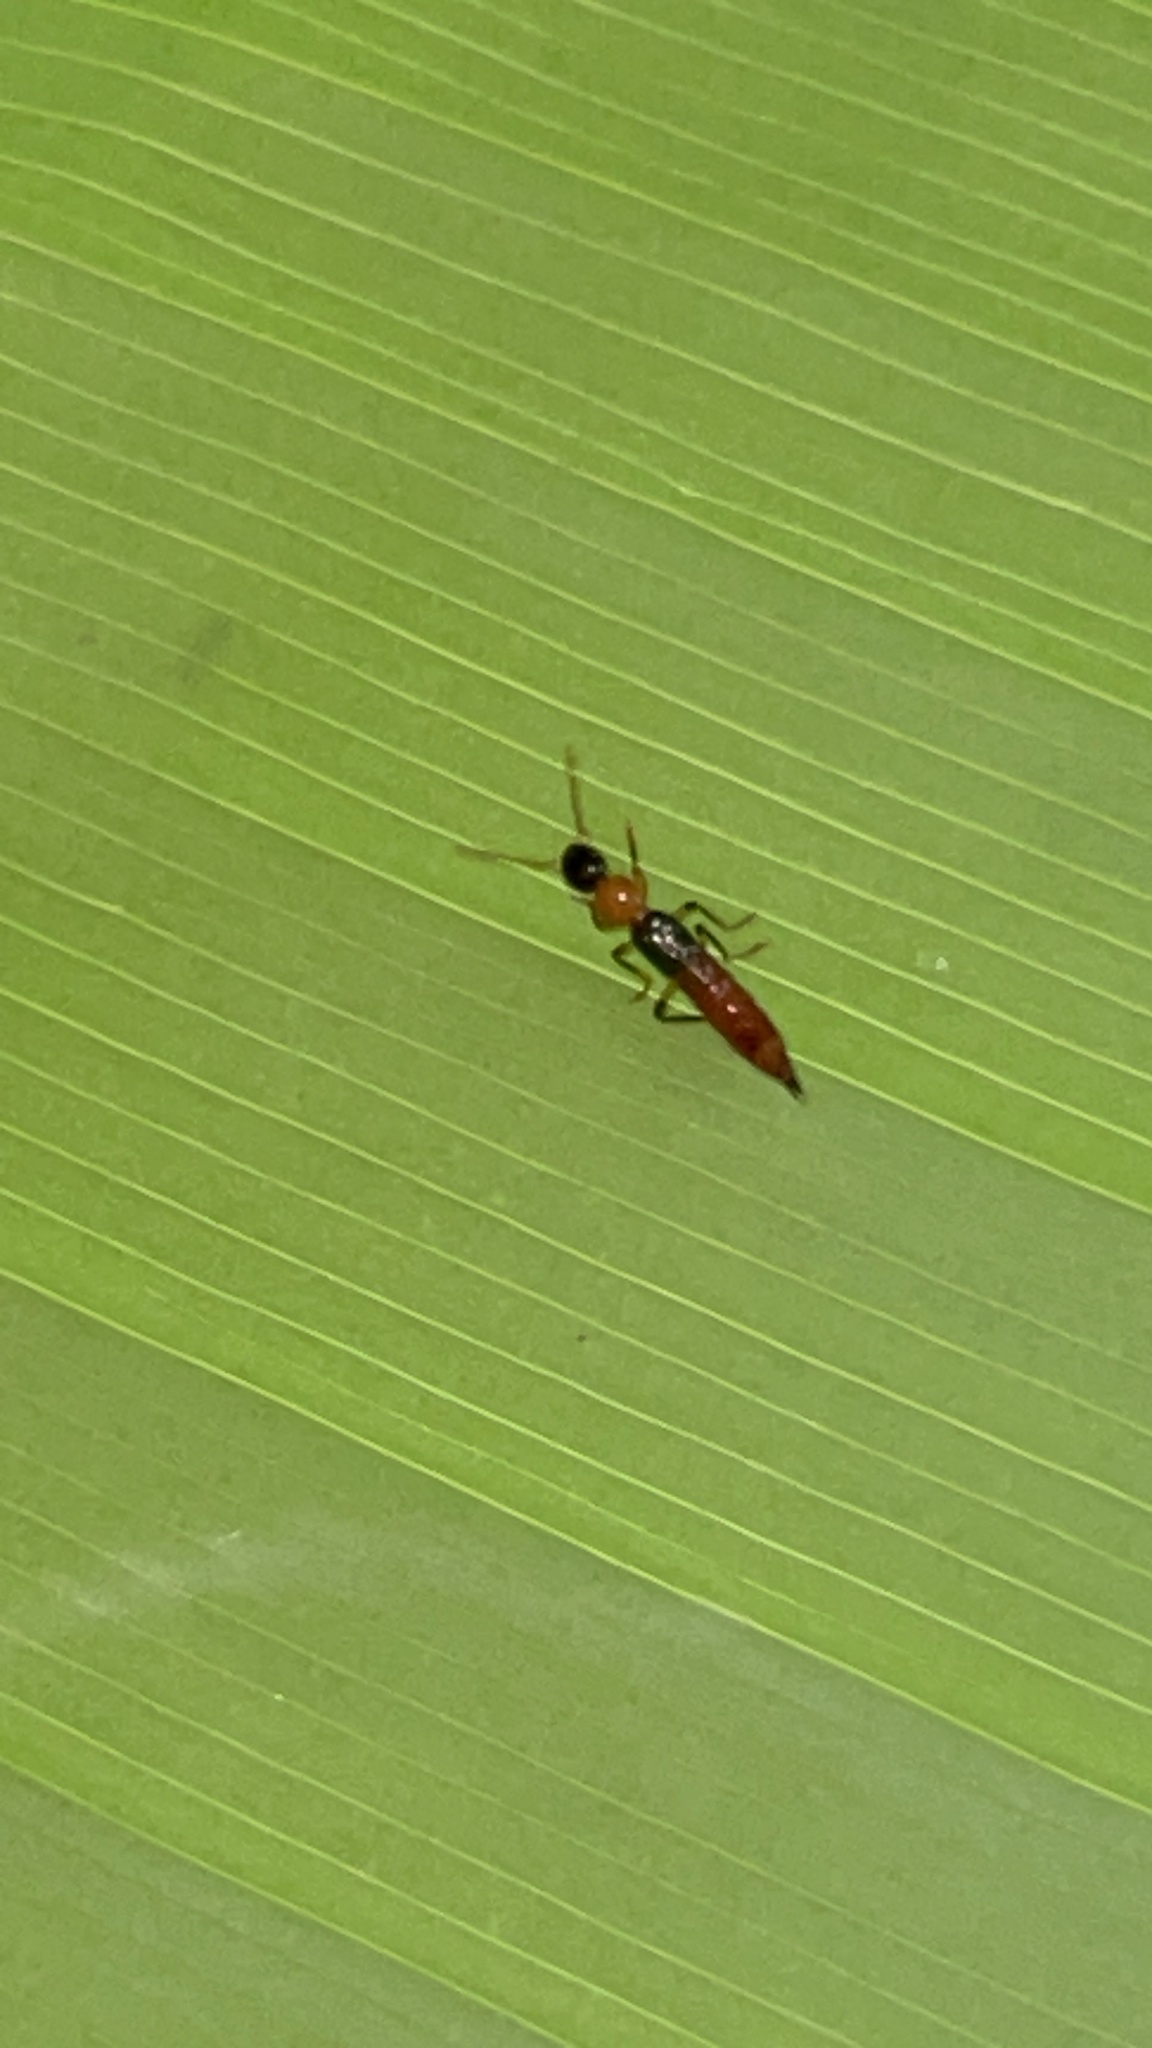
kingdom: Animalia
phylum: Arthropoda
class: Insecta
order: Coleoptera
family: Staphylinidae
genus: Paederus
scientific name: Paederus laetus
